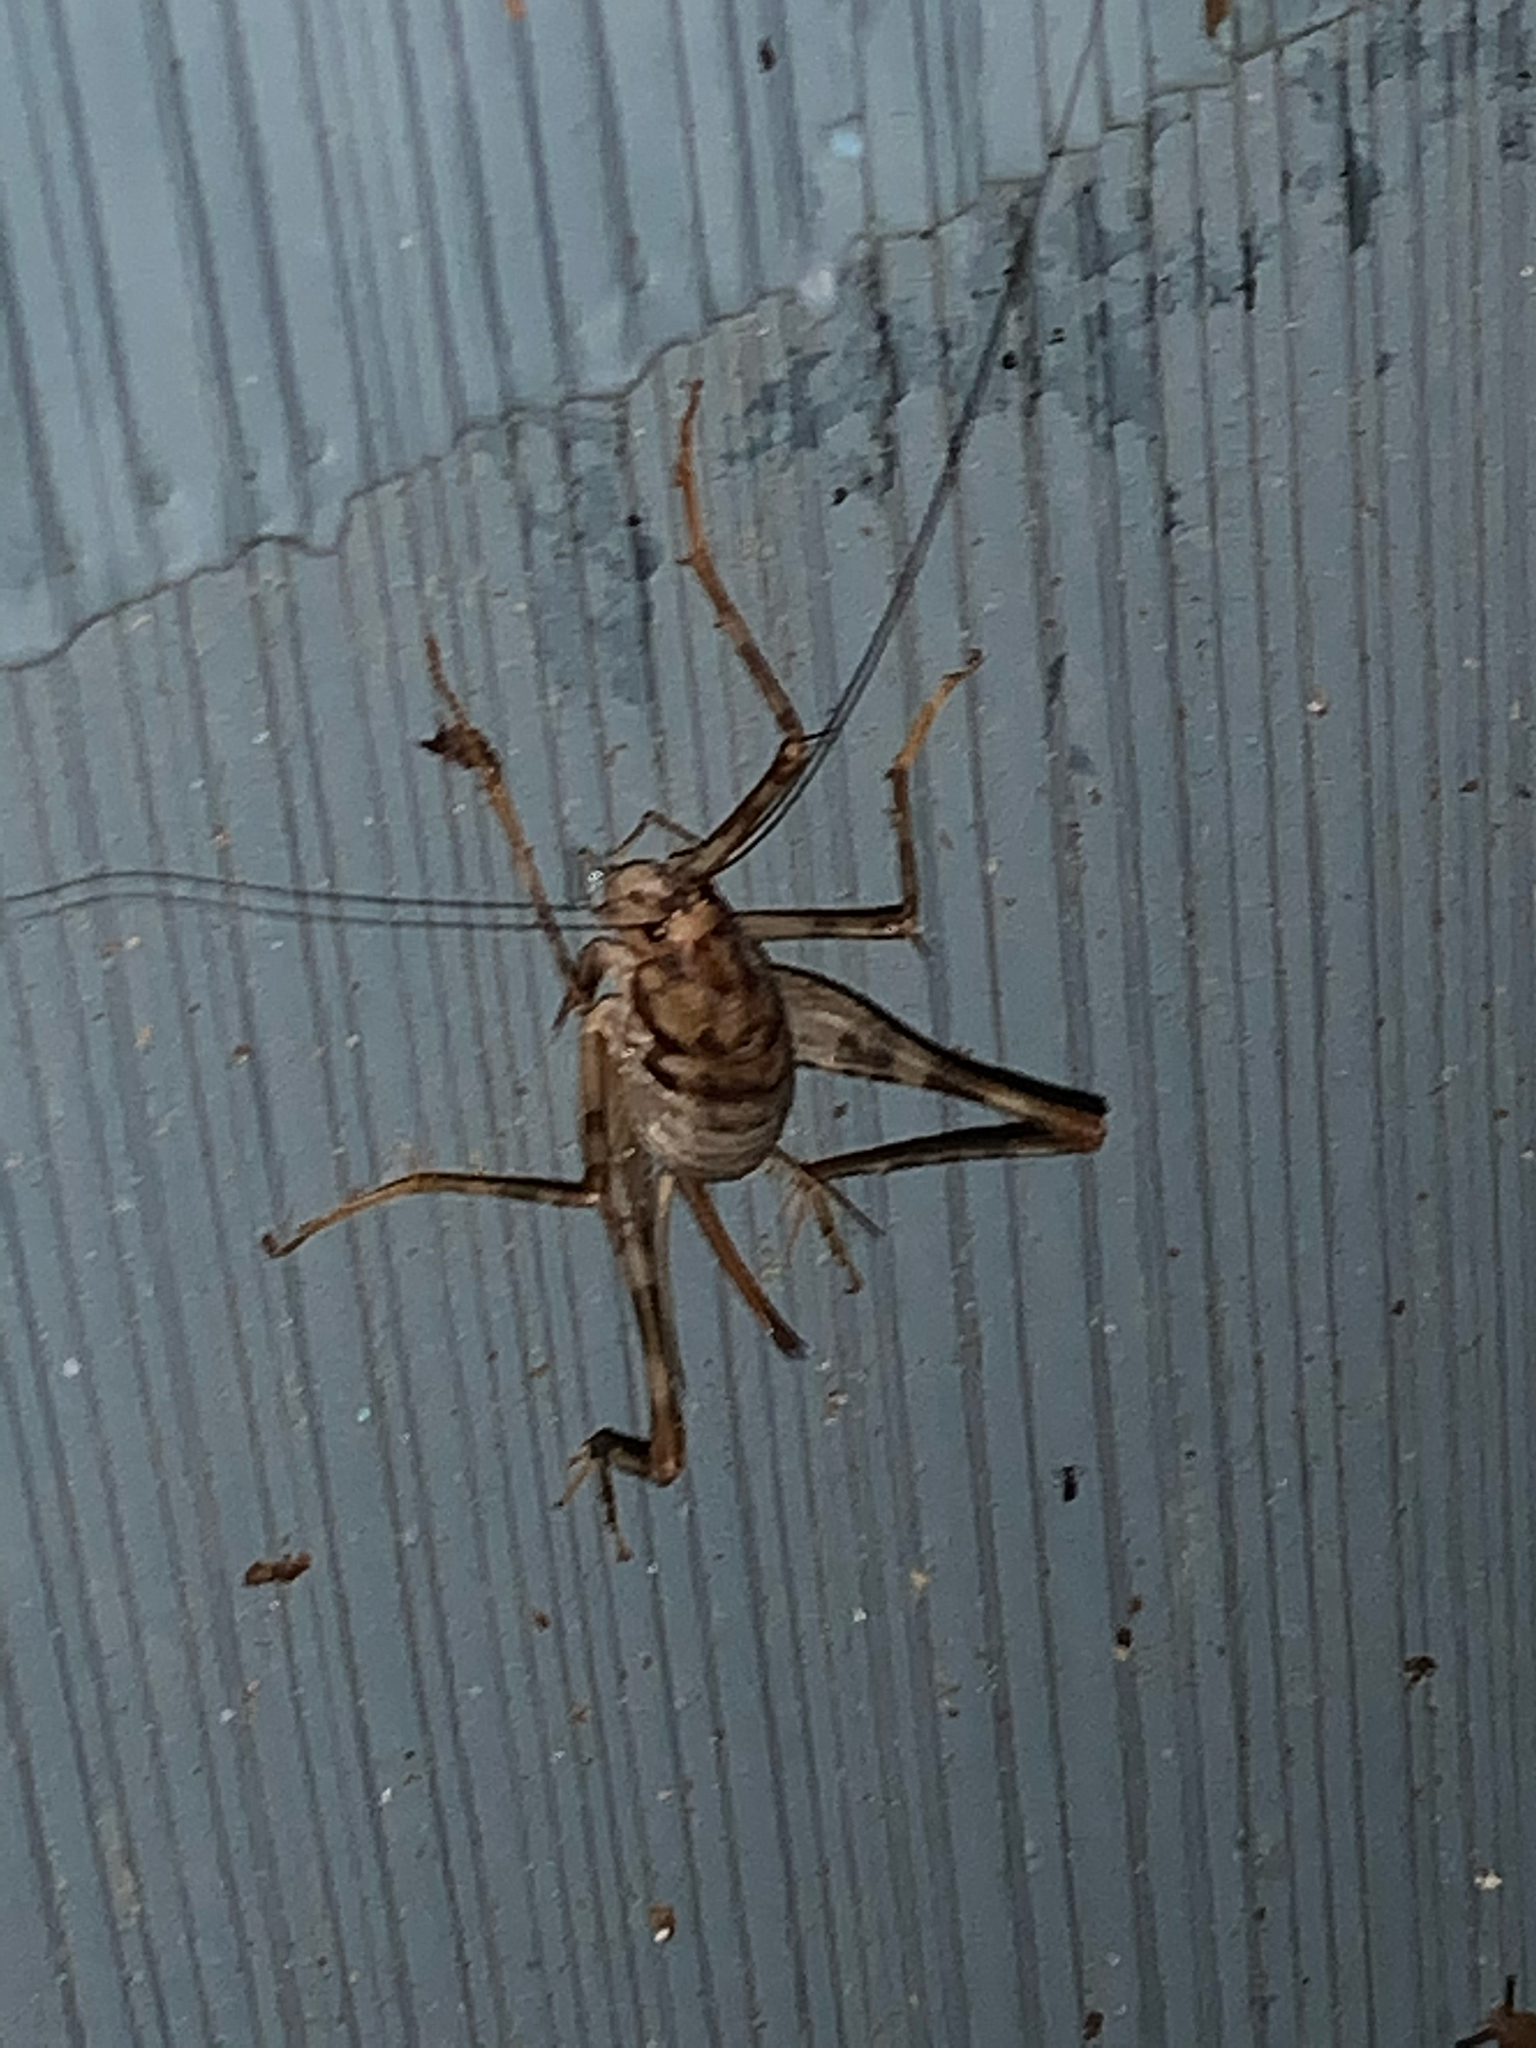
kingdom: Animalia
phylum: Arthropoda
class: Insecta
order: Orthoptera
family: Rhaphidophoridae
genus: Tachycines
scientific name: Tachycines asynamorus
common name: Greenhouse camel cricket
